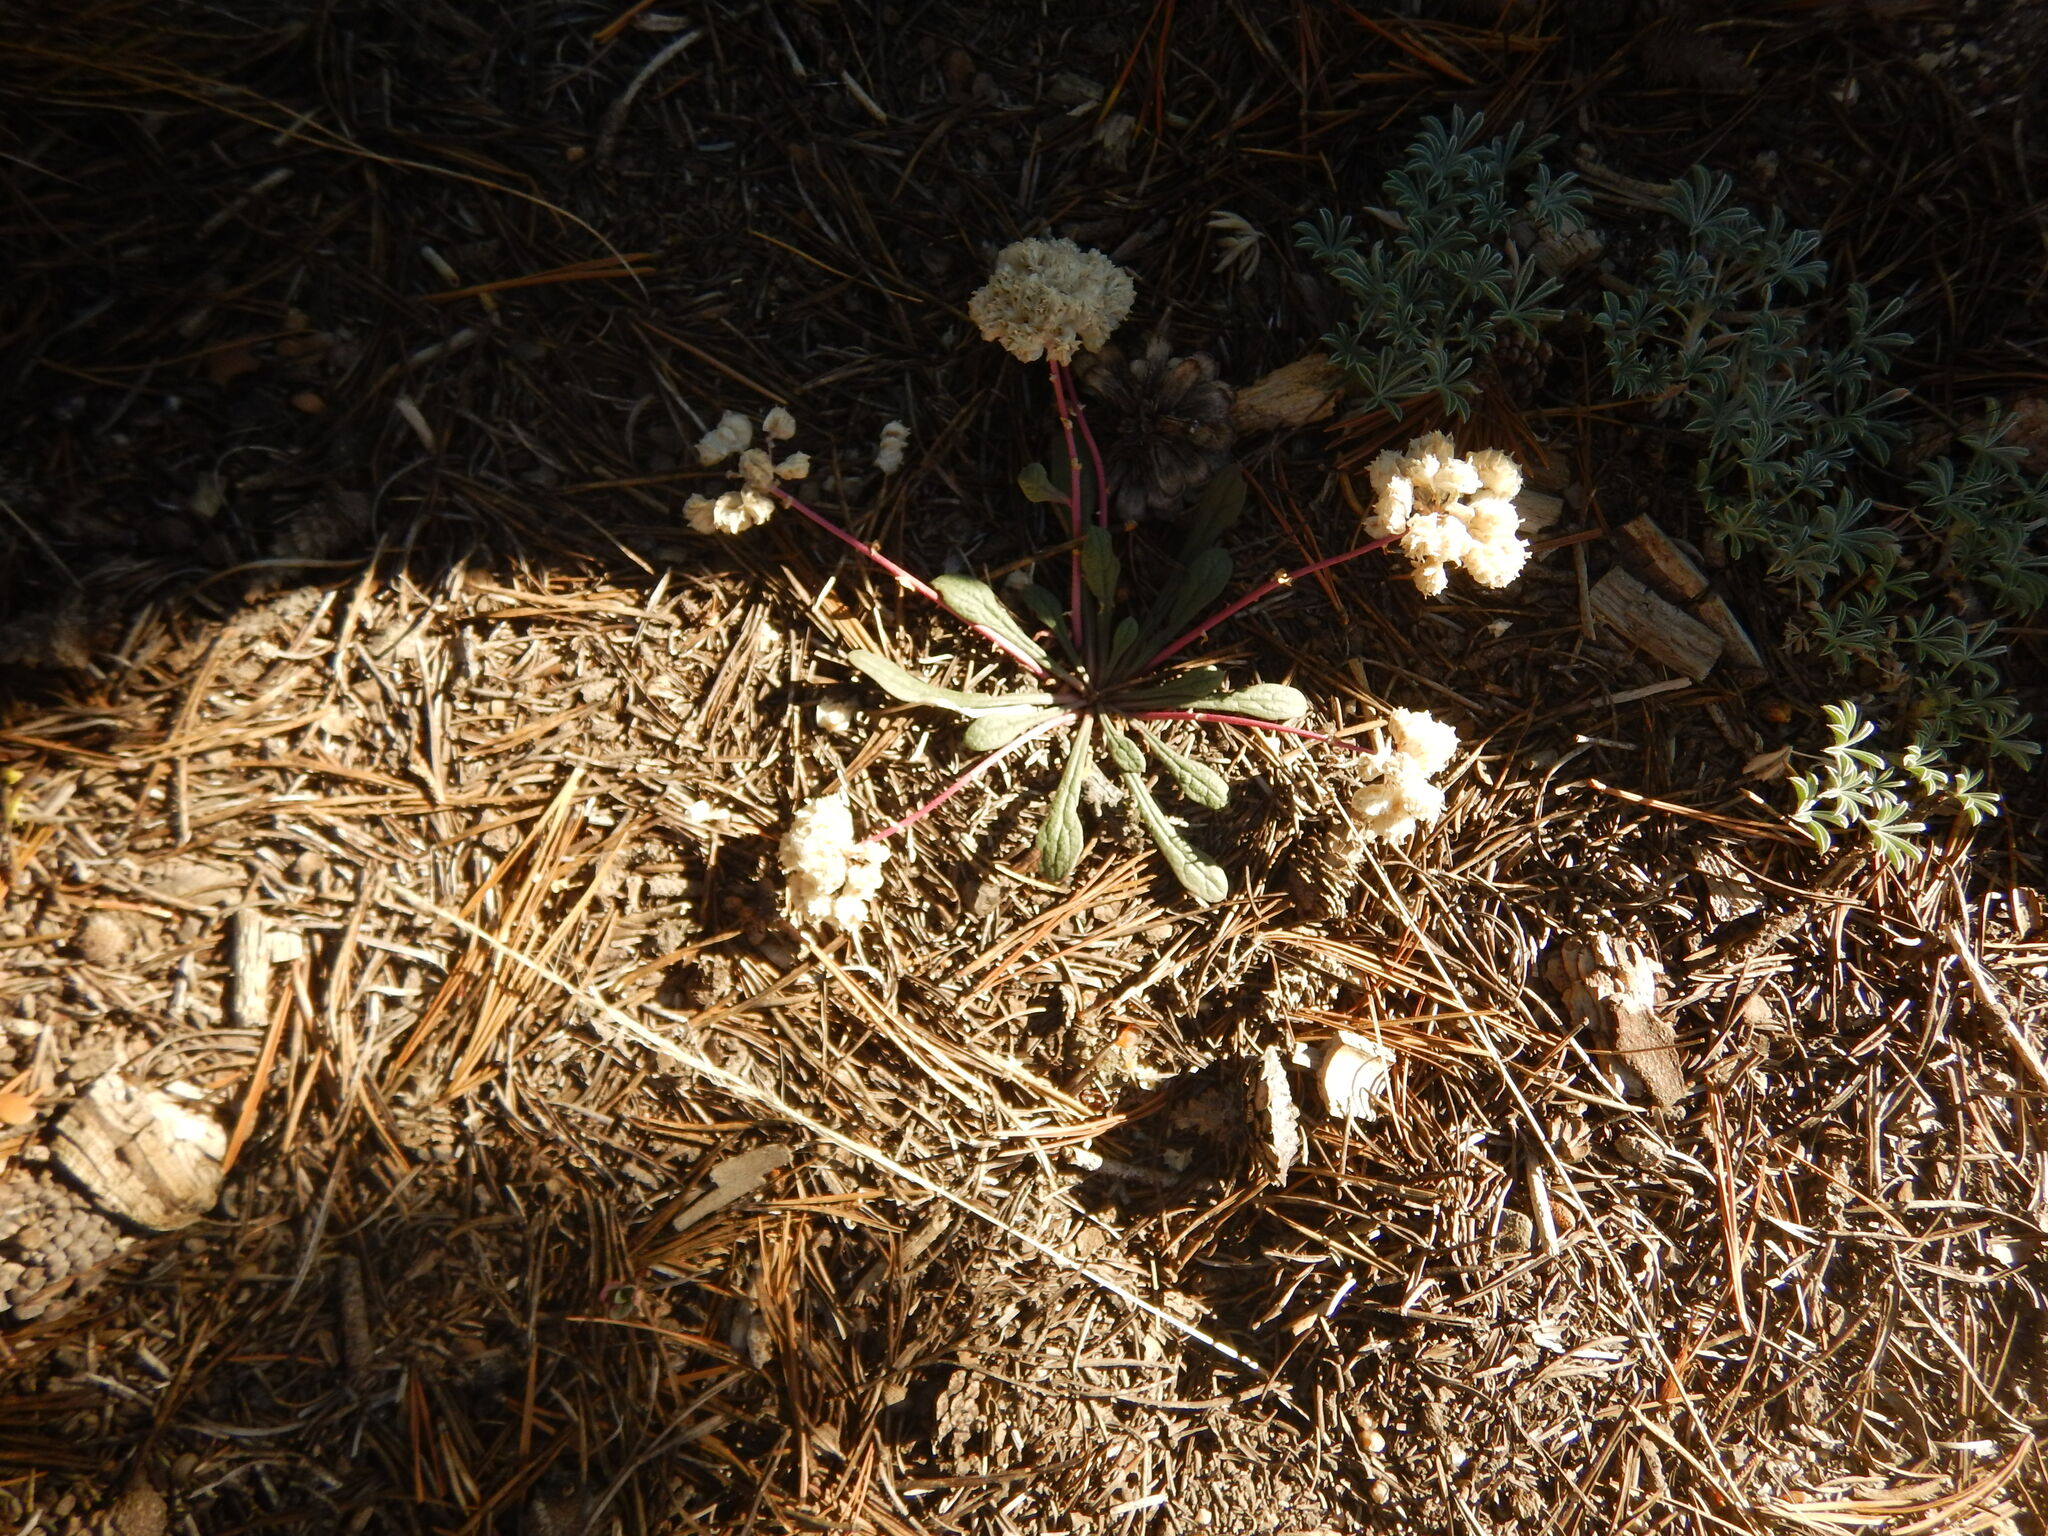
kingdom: Plantae
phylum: Tracheophyta
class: Magnoliopsida
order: Caryophyllales
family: Montiaceae
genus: Calyptridium
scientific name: Calyptridium monospermum
